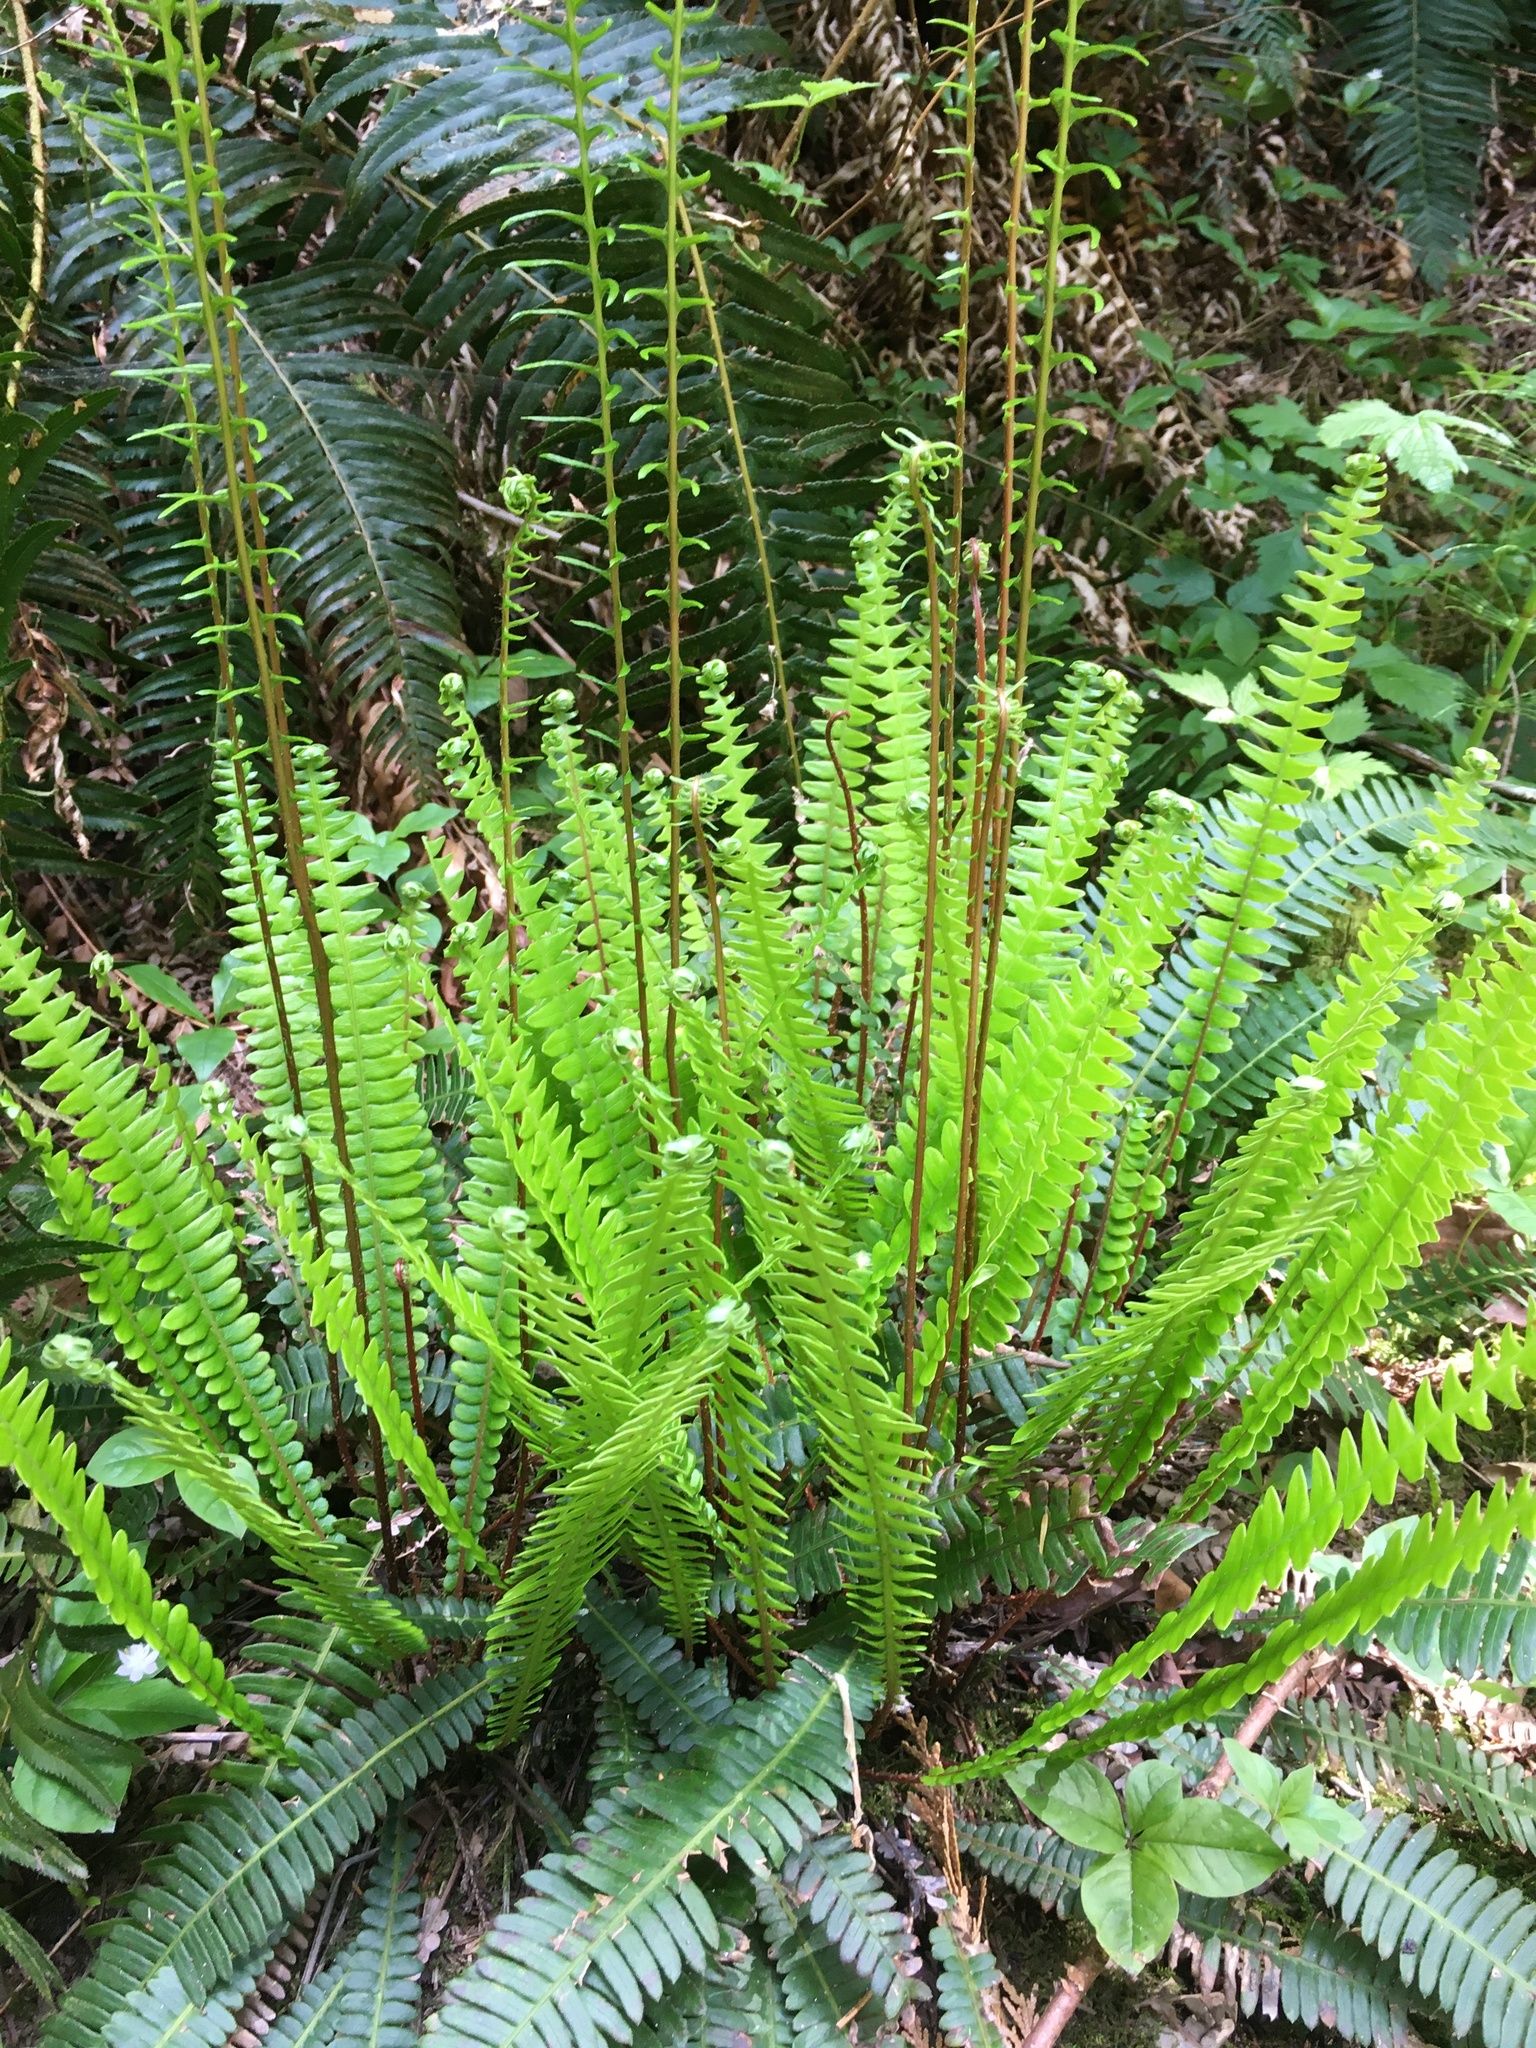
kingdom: Plantae
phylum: Tracheophyta
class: Polypodiopsida
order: Polypodiales
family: Blechnaceae
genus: Struthiopteris
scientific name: Struthiopteris spicant
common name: Deer fern
